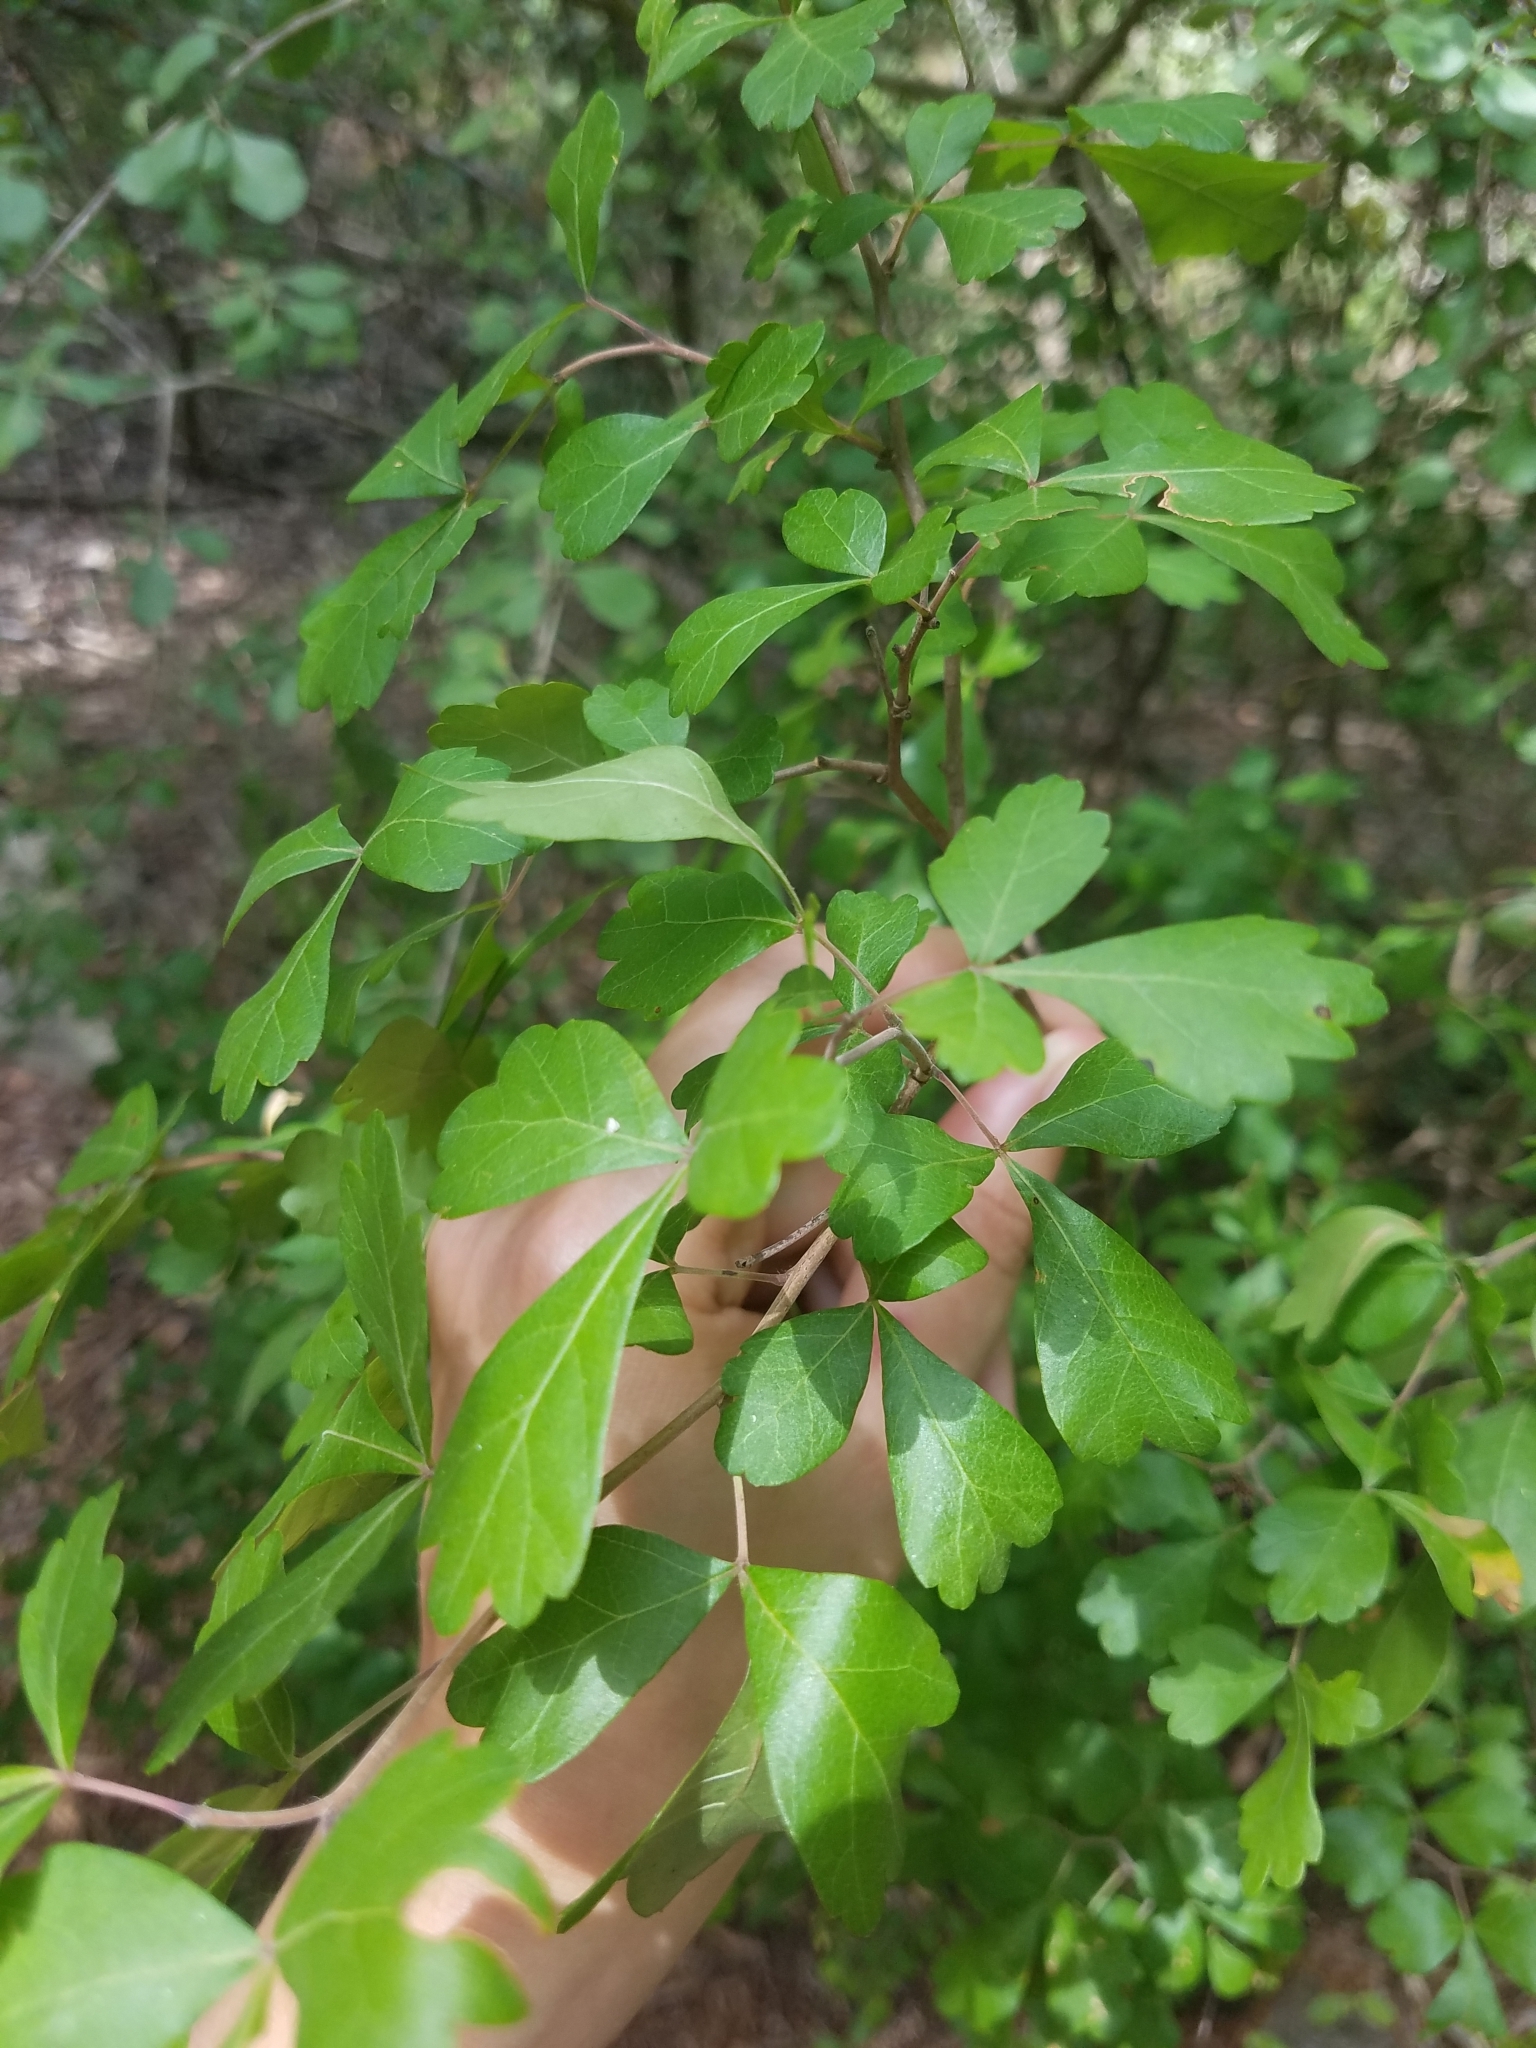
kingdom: Plantae
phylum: Tracheophyta
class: Magnoliopsida
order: Sapindales
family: Anacardiaceae
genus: Rhus
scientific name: Rhus aromatica
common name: Aromatic sumac
